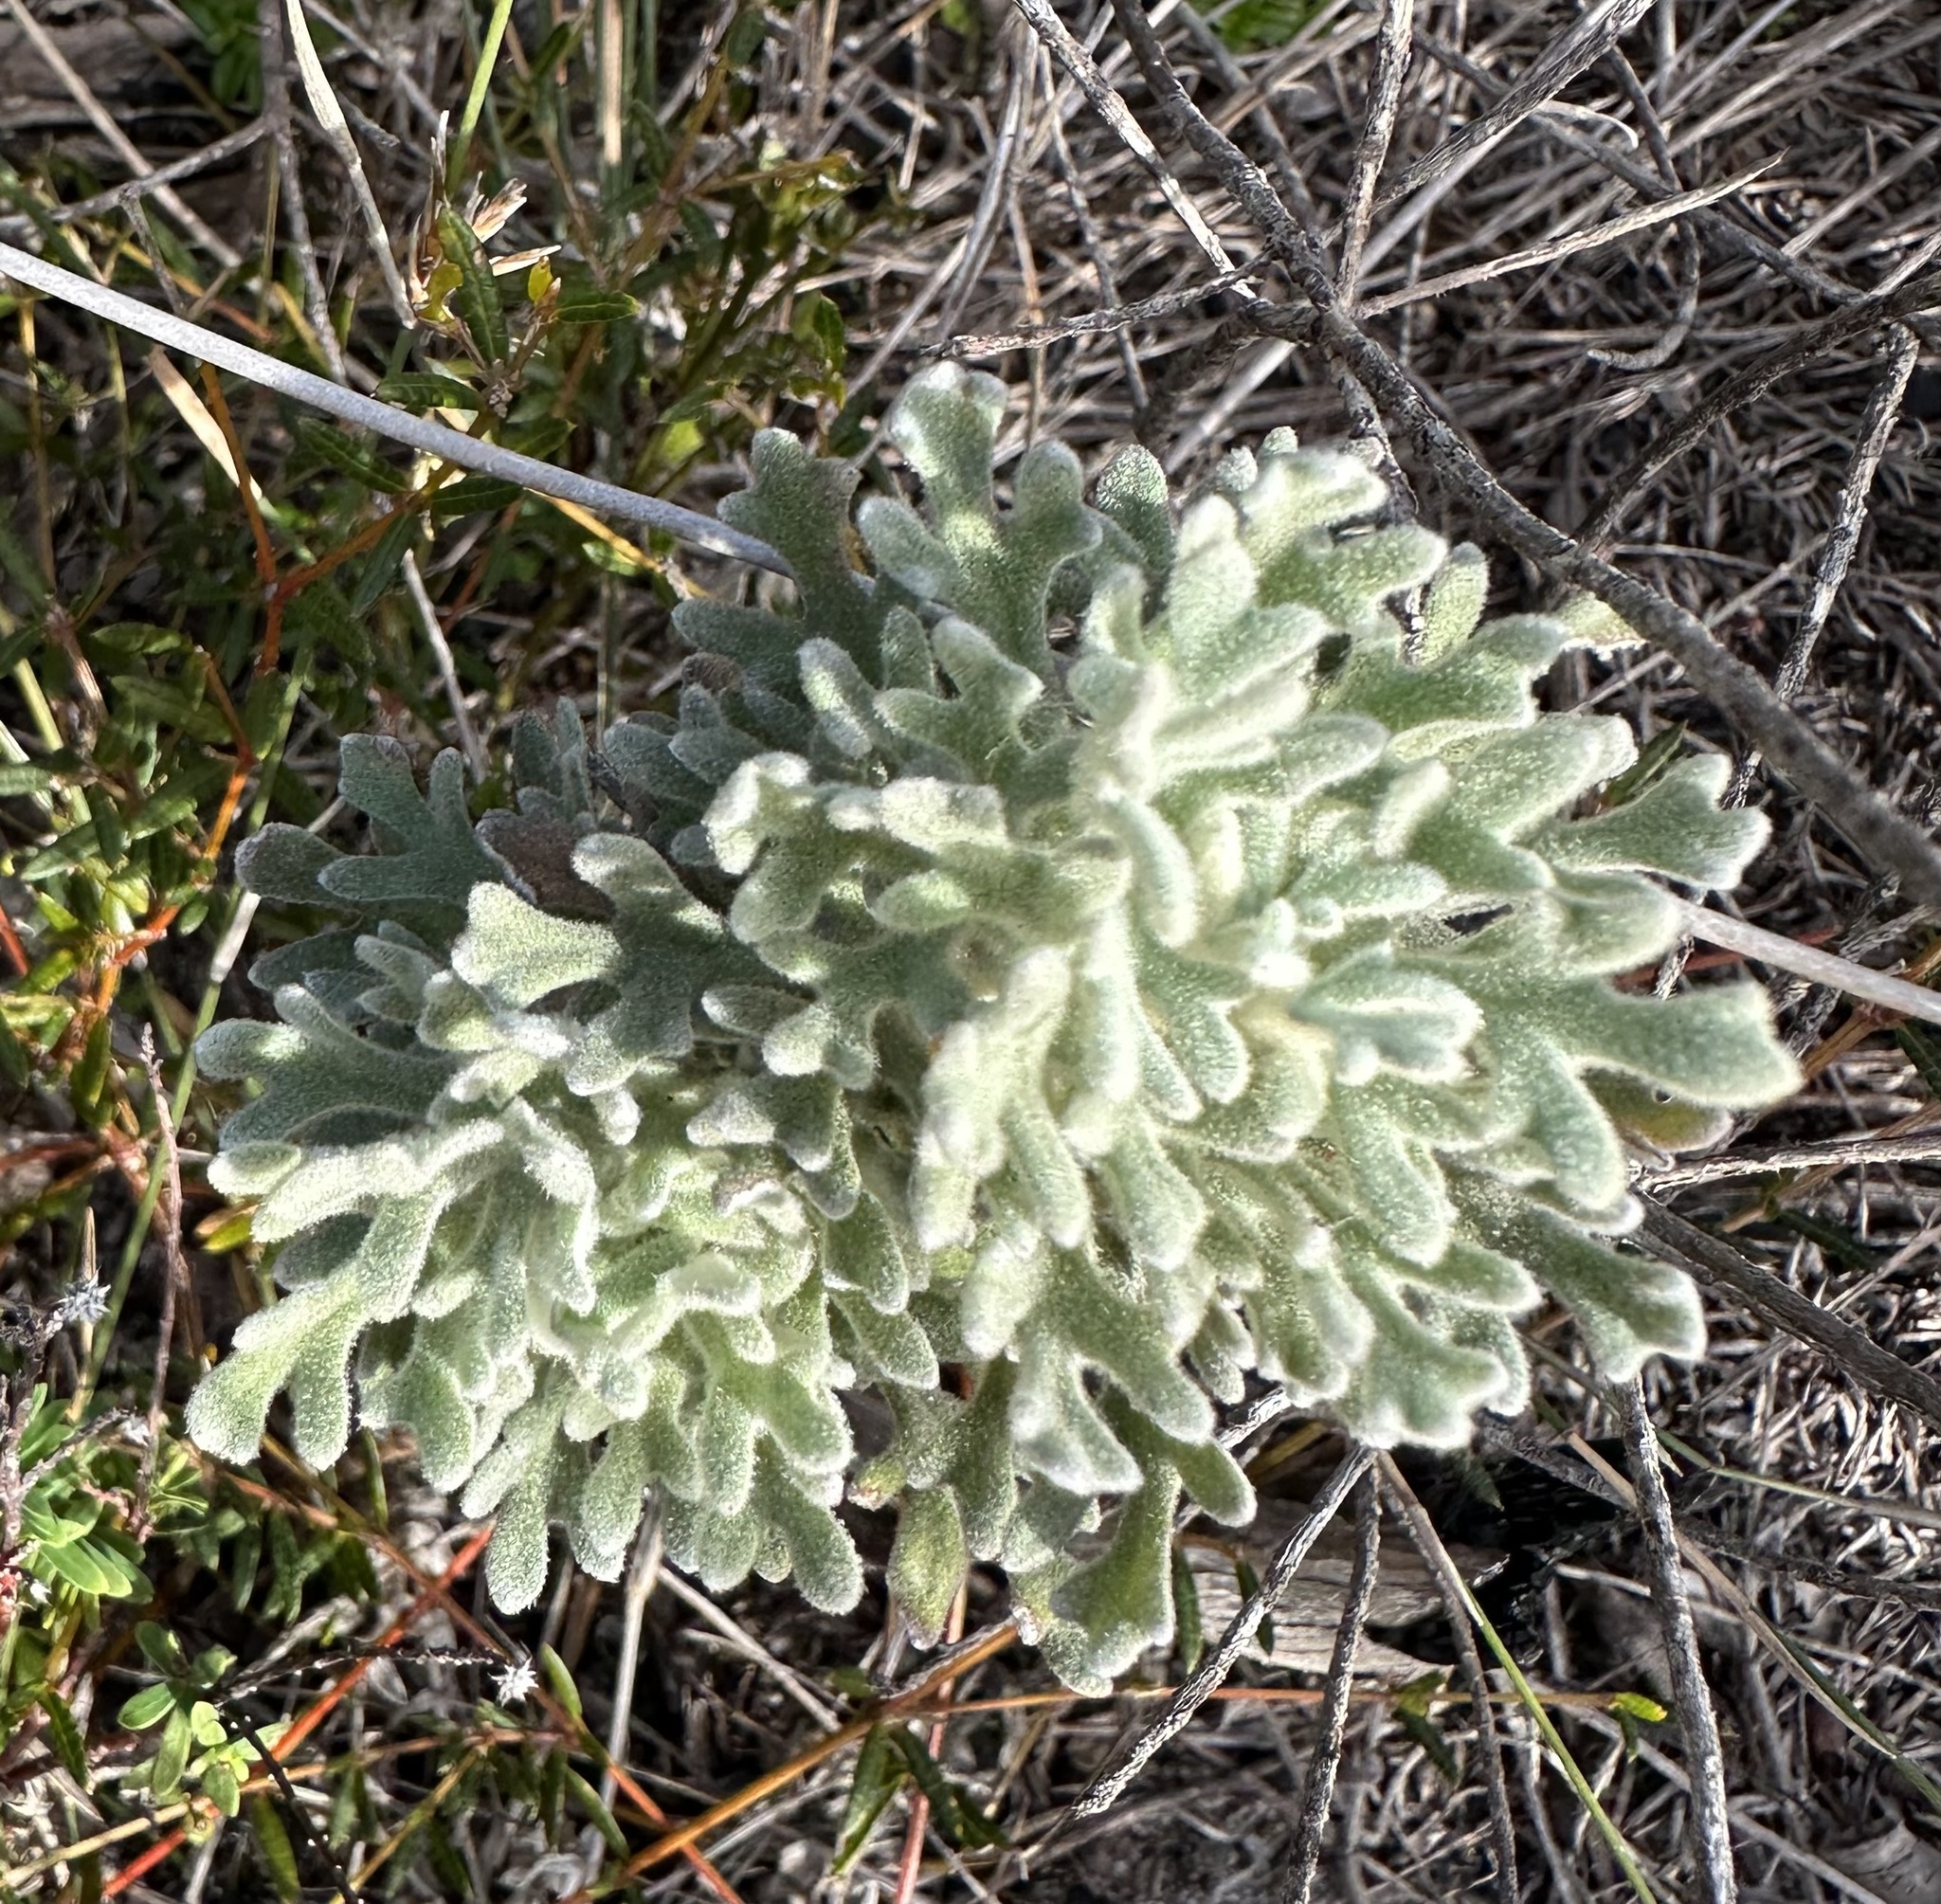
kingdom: Plantae
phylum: Tracheophyta
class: Magnoliopsida
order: Apiales
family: Apiaceae
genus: Actinotus
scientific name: Actinotus helianthi
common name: Flannel-flower
